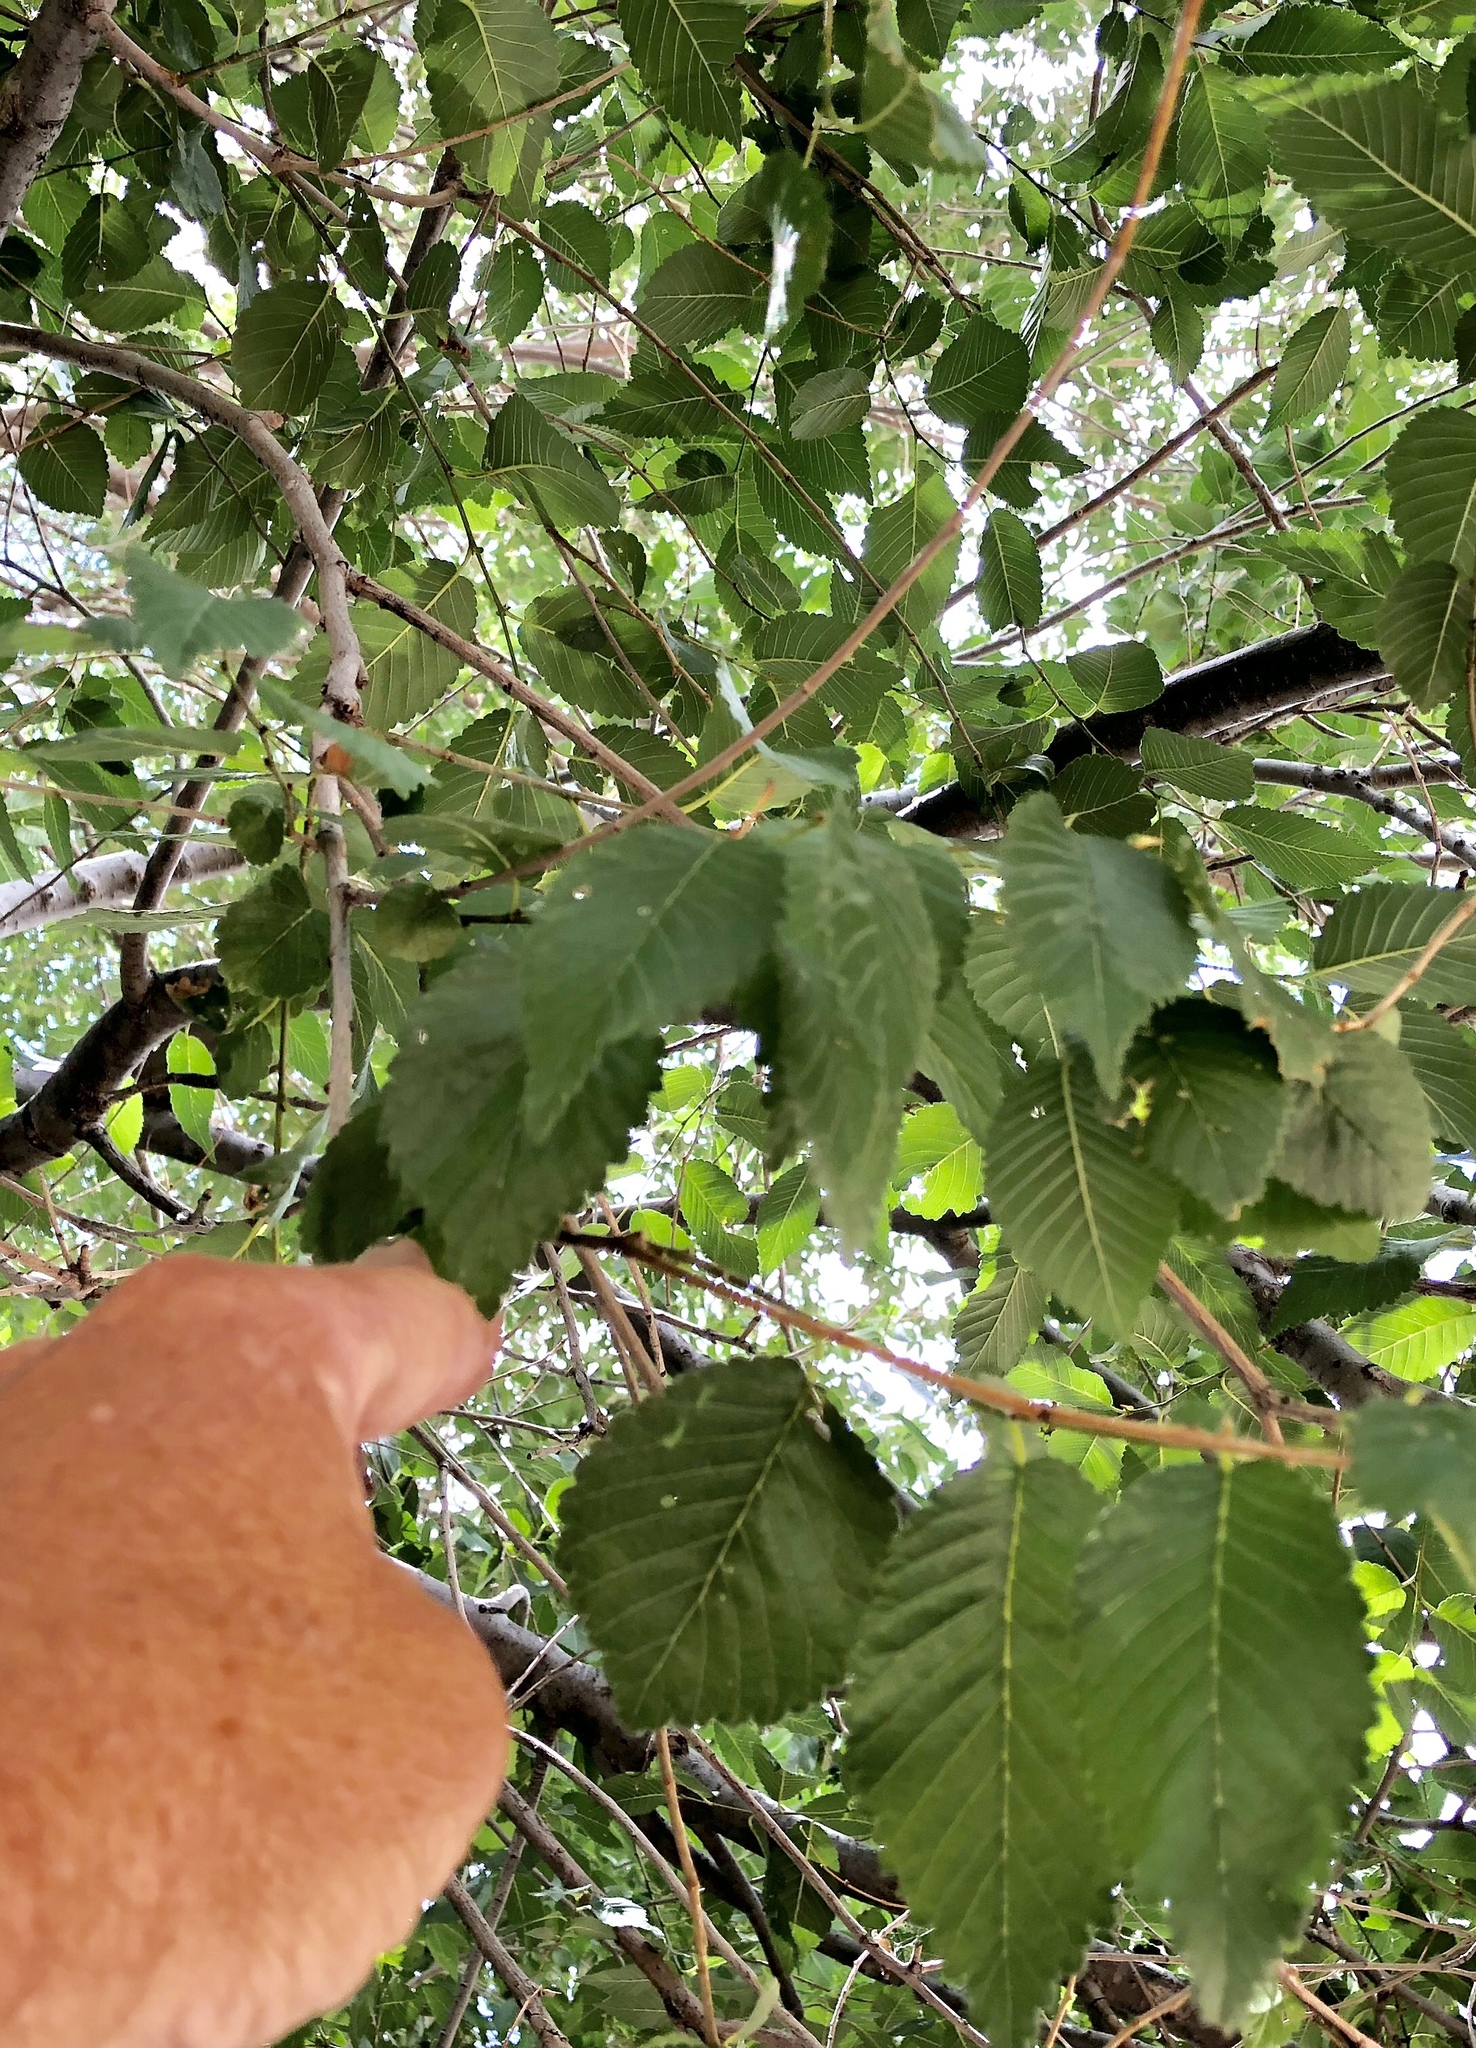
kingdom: Plantae
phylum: Tracheophyta
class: Magnoliopsida
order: Rosales
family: Ulmaceae
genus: Ulmus
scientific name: Ulmus pumila
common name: Siberian elm
